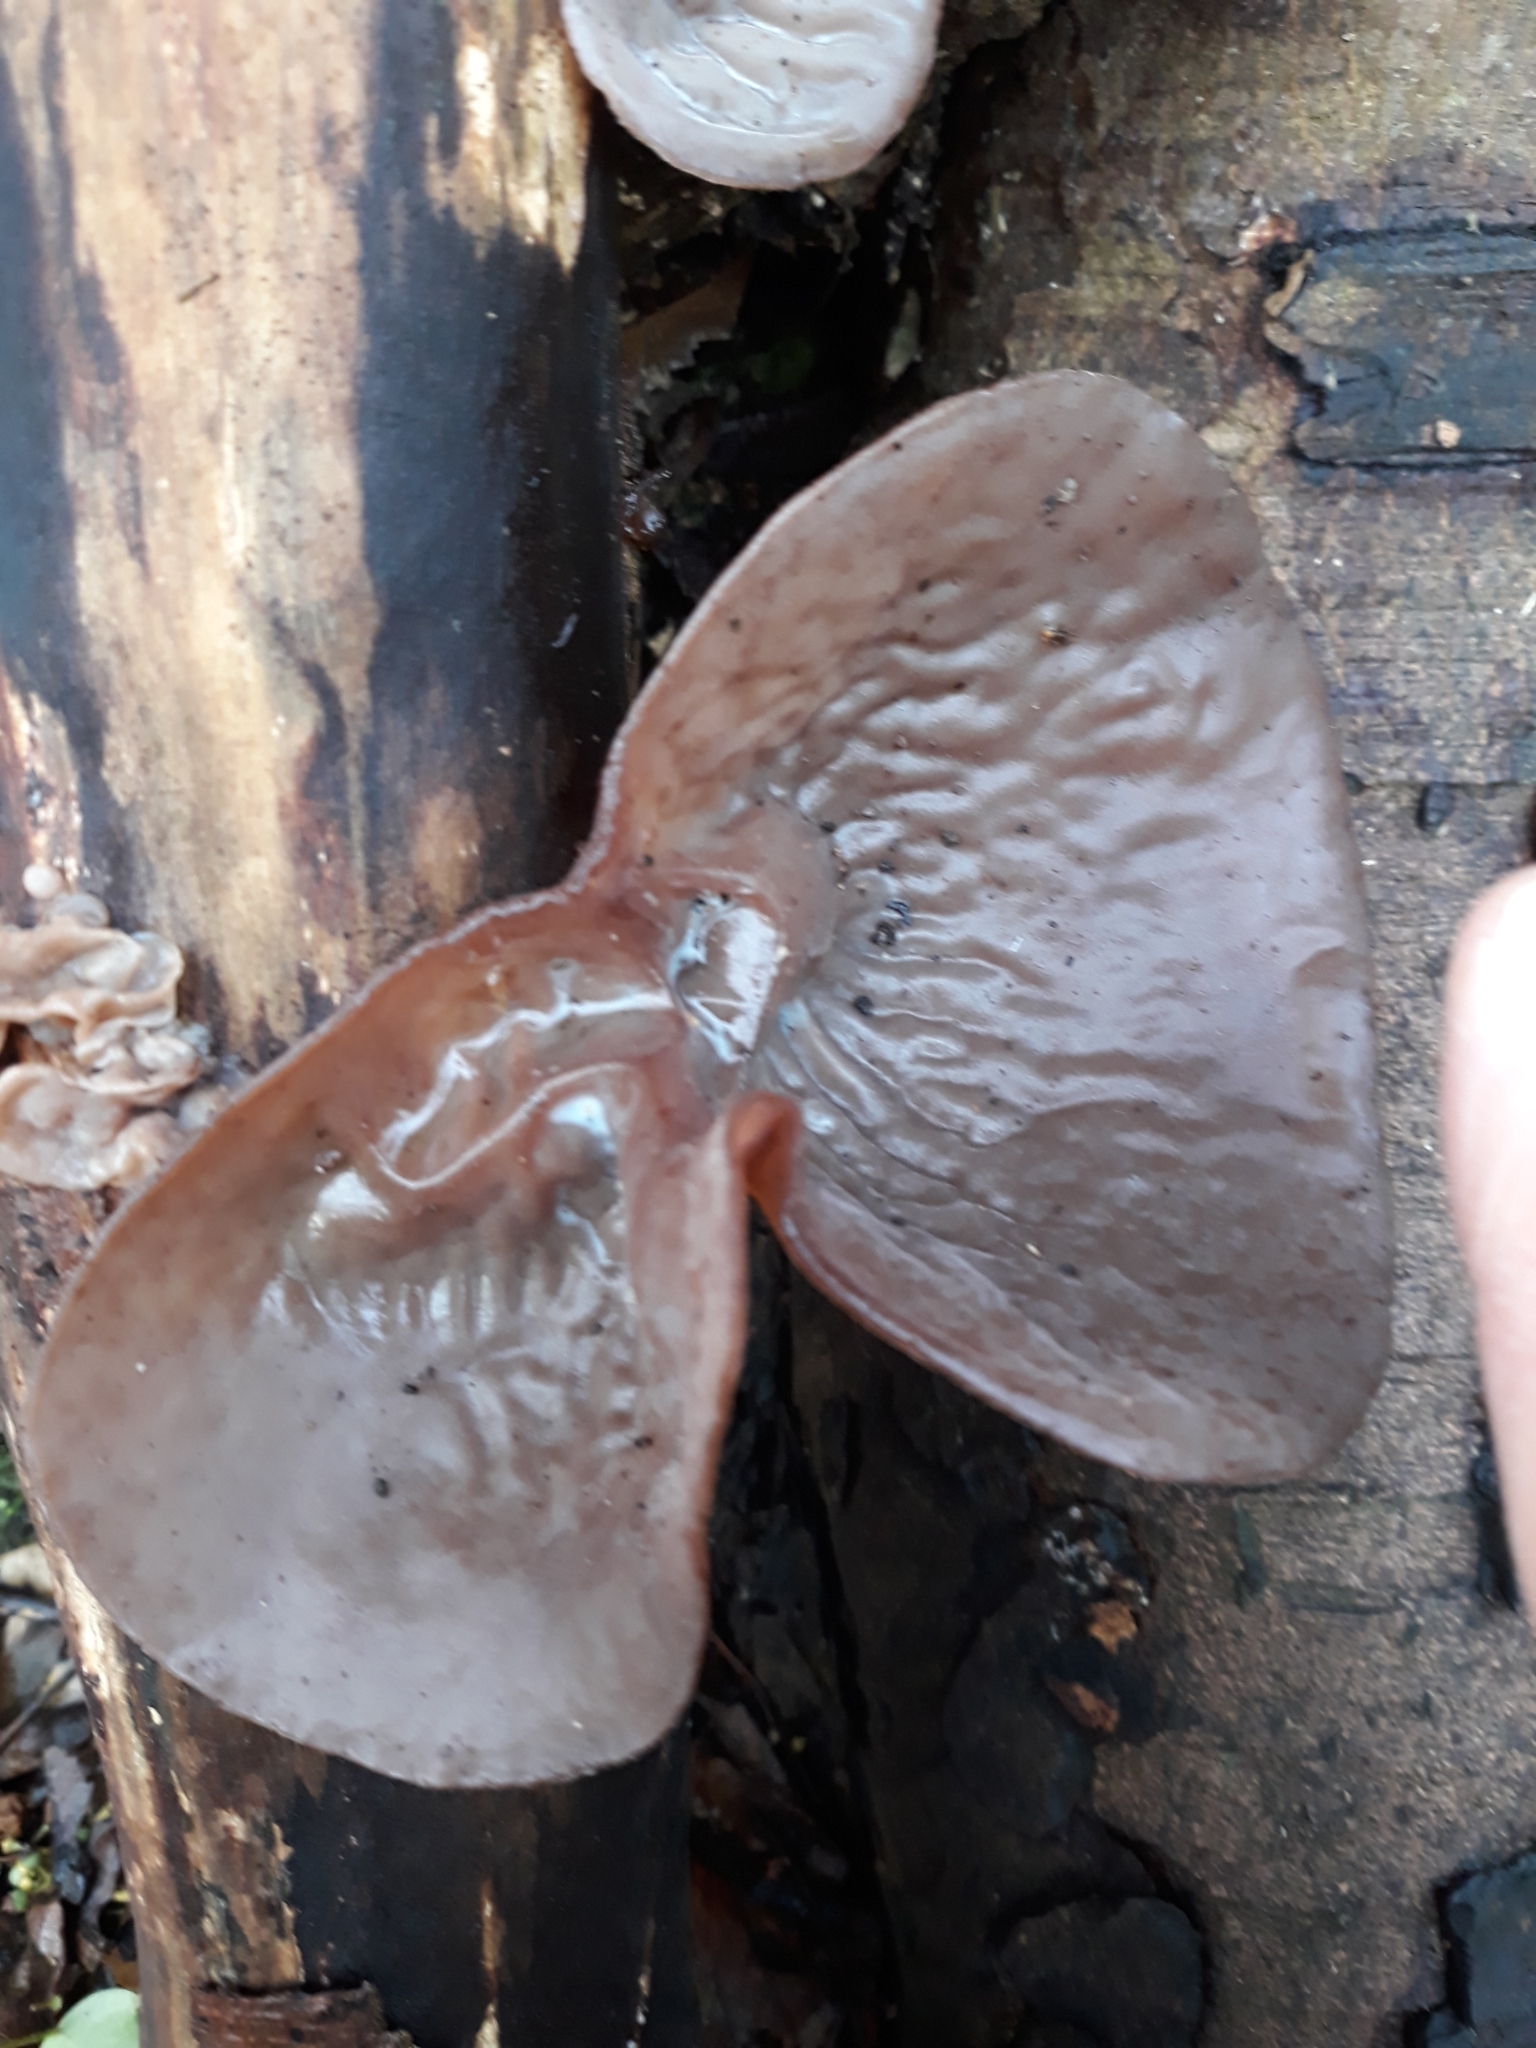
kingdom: Fungi
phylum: Basidiomycota
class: Agaricomycetes
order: Auriculariales
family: Auriculariaceae
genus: Auricularia
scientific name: Auricularia auricula-judae
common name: Jelly ear
